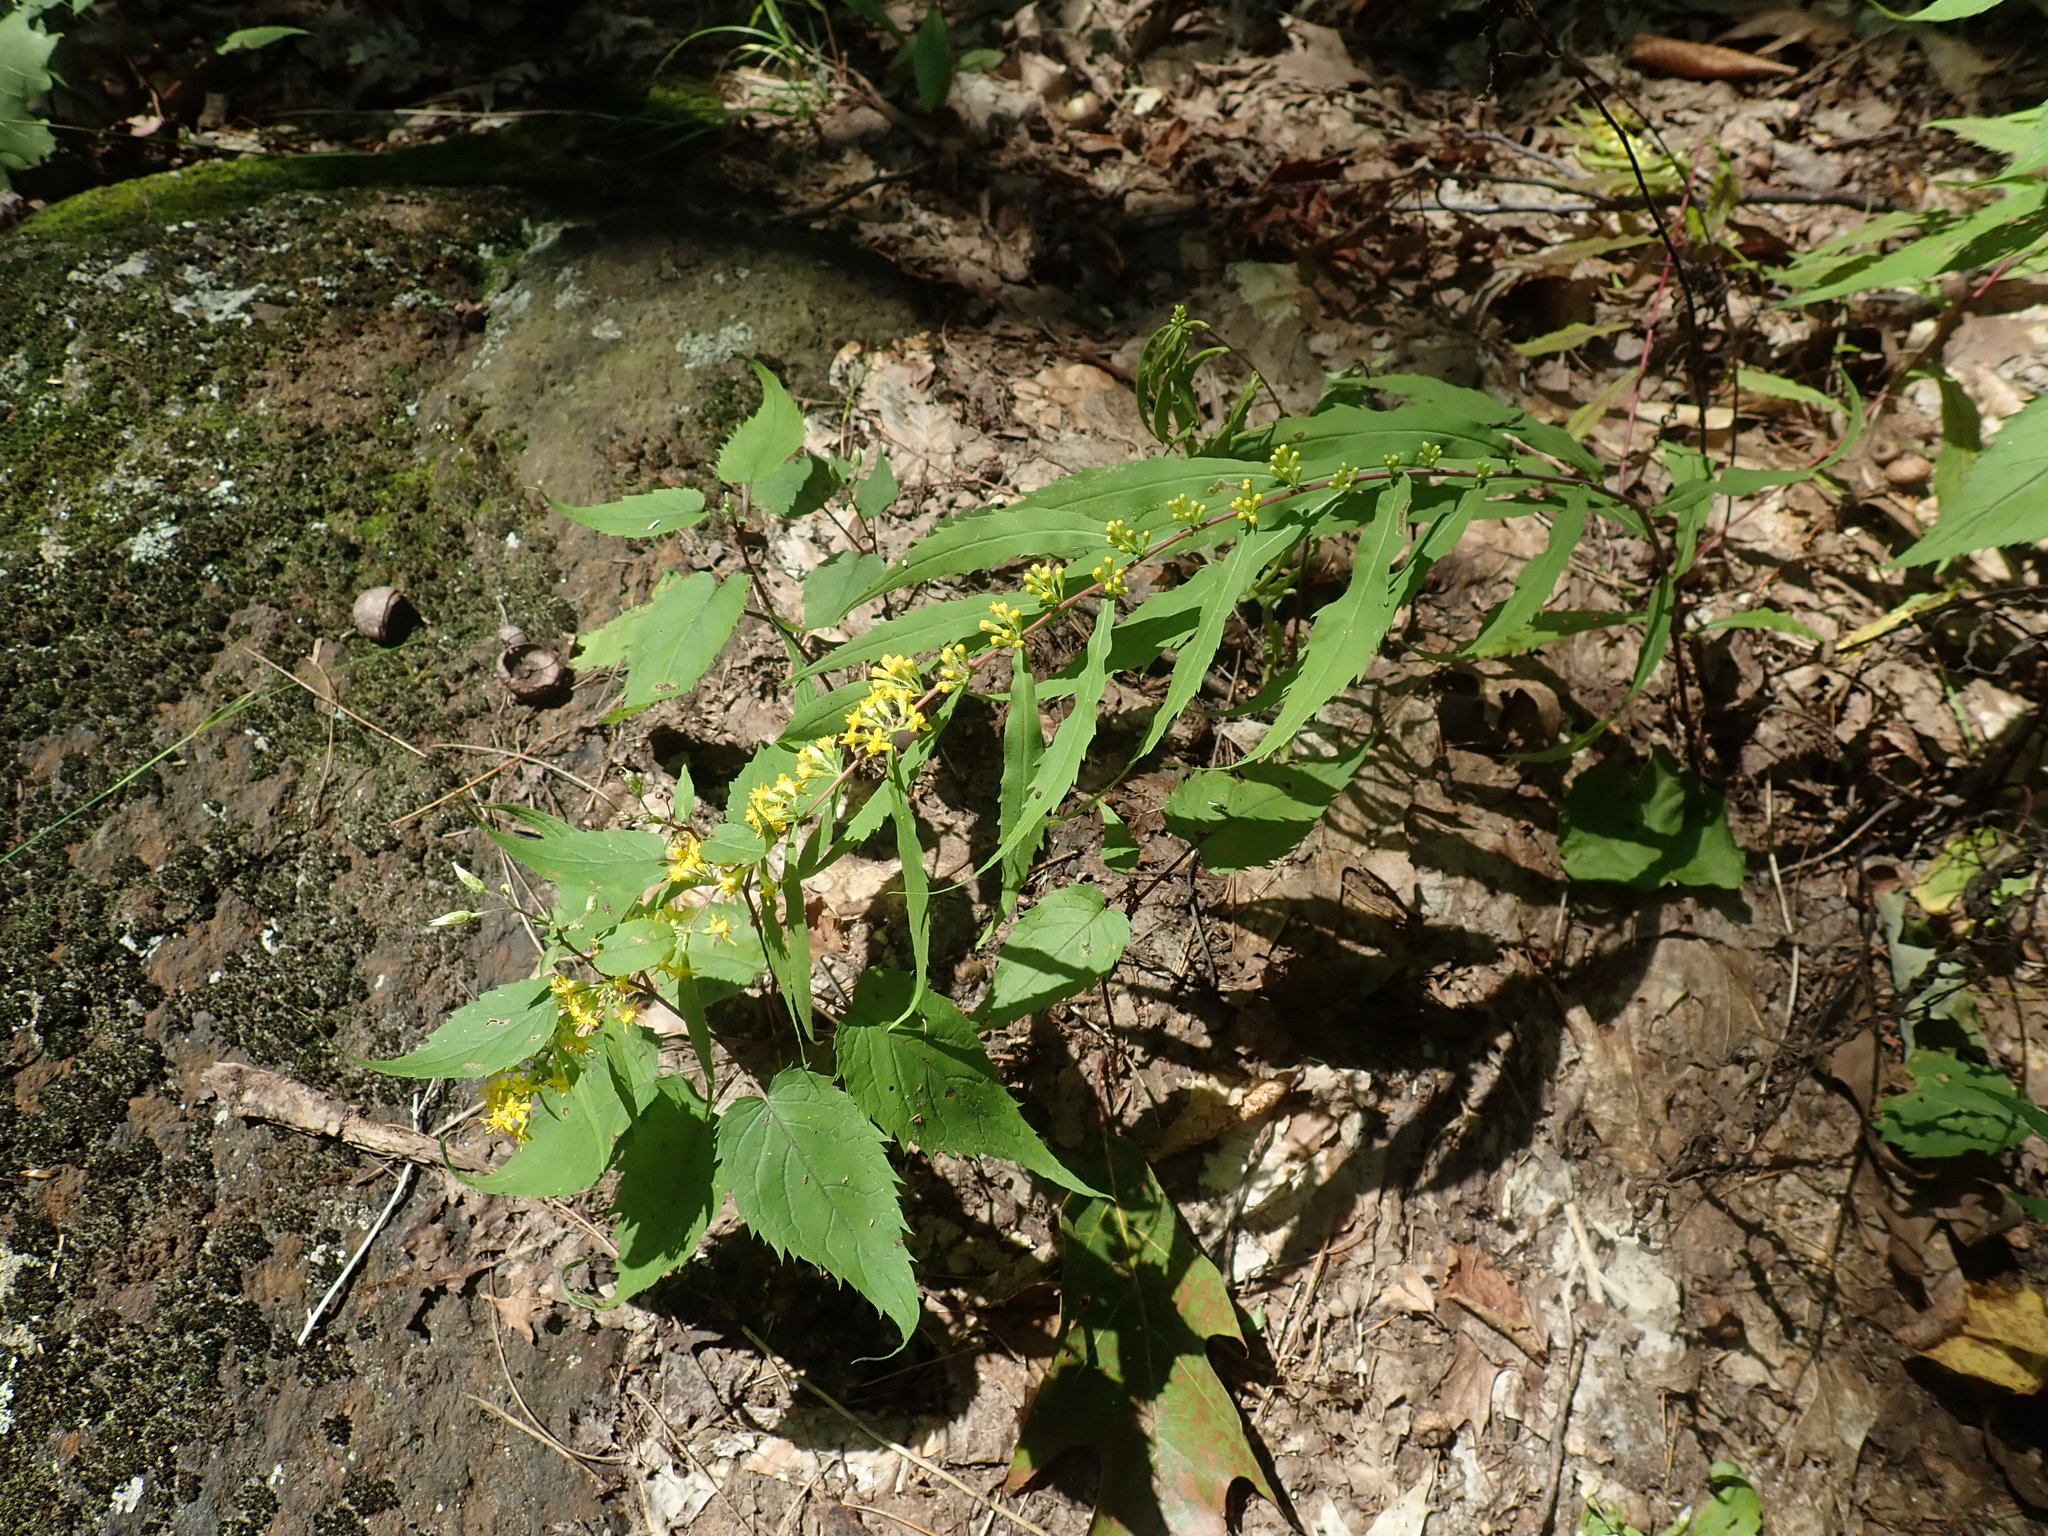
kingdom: Plantae
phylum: Tracheophyta
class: Magnoliopsida
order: Asterales
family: Asteraceae
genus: Solidago
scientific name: Solidago caesia
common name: Woodland goldenrod
